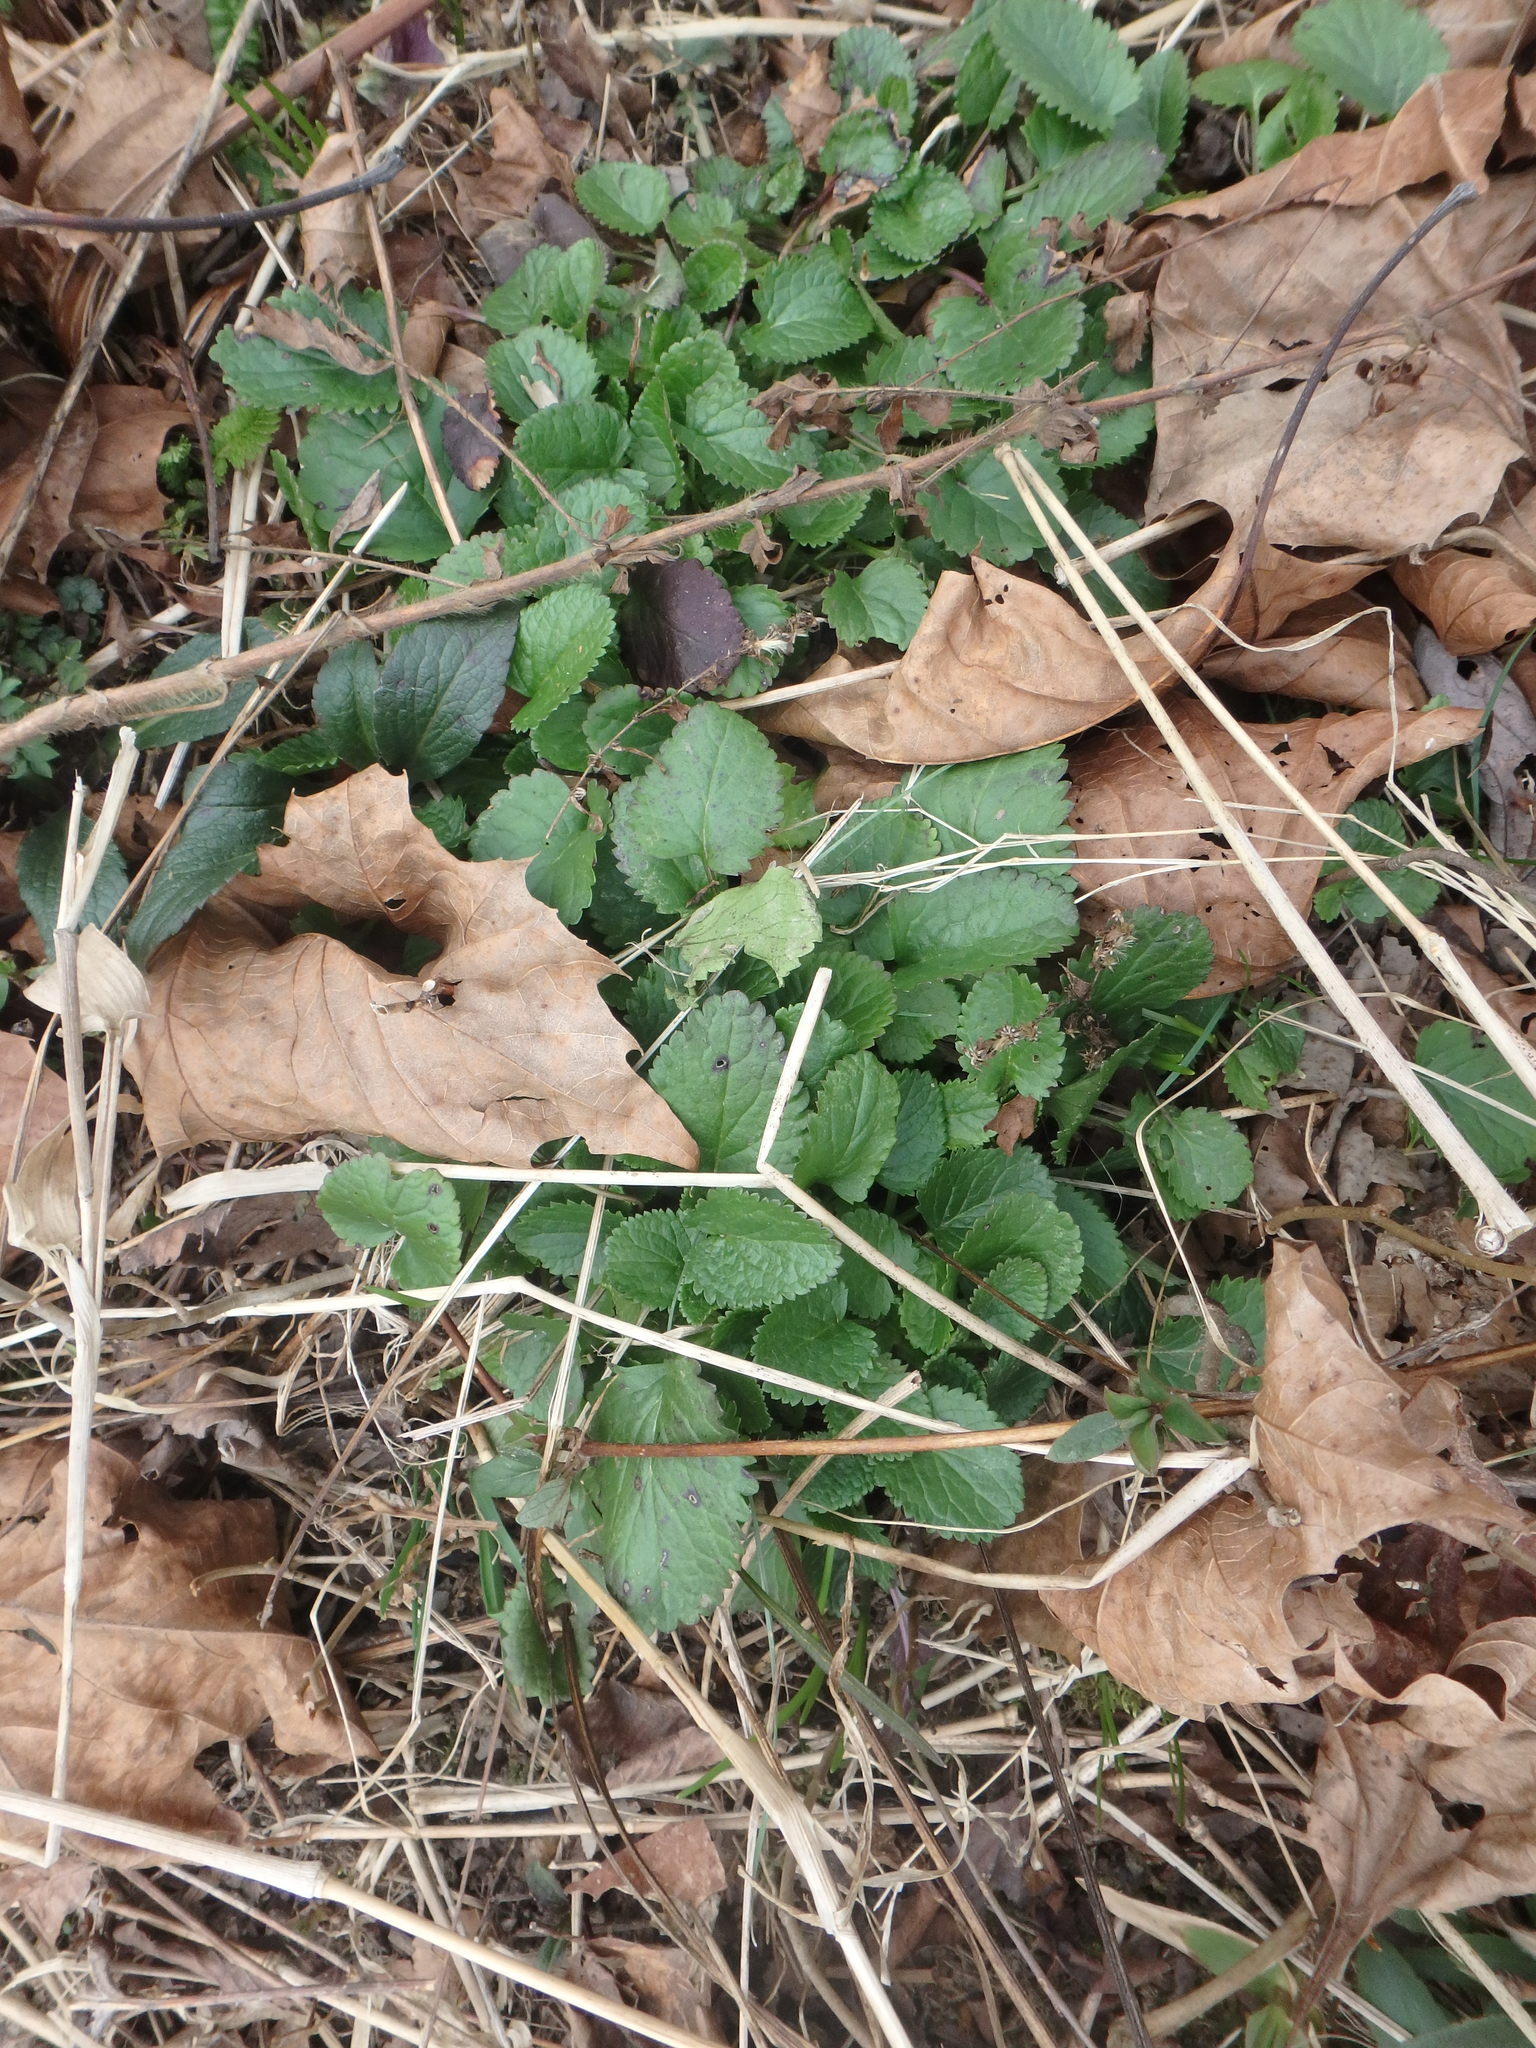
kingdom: Plantae
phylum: Tracheophyta
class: Magnoliopsida
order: Asterales
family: Asteraceae
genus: Packera
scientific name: Packera aurea
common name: Golden groundsel
